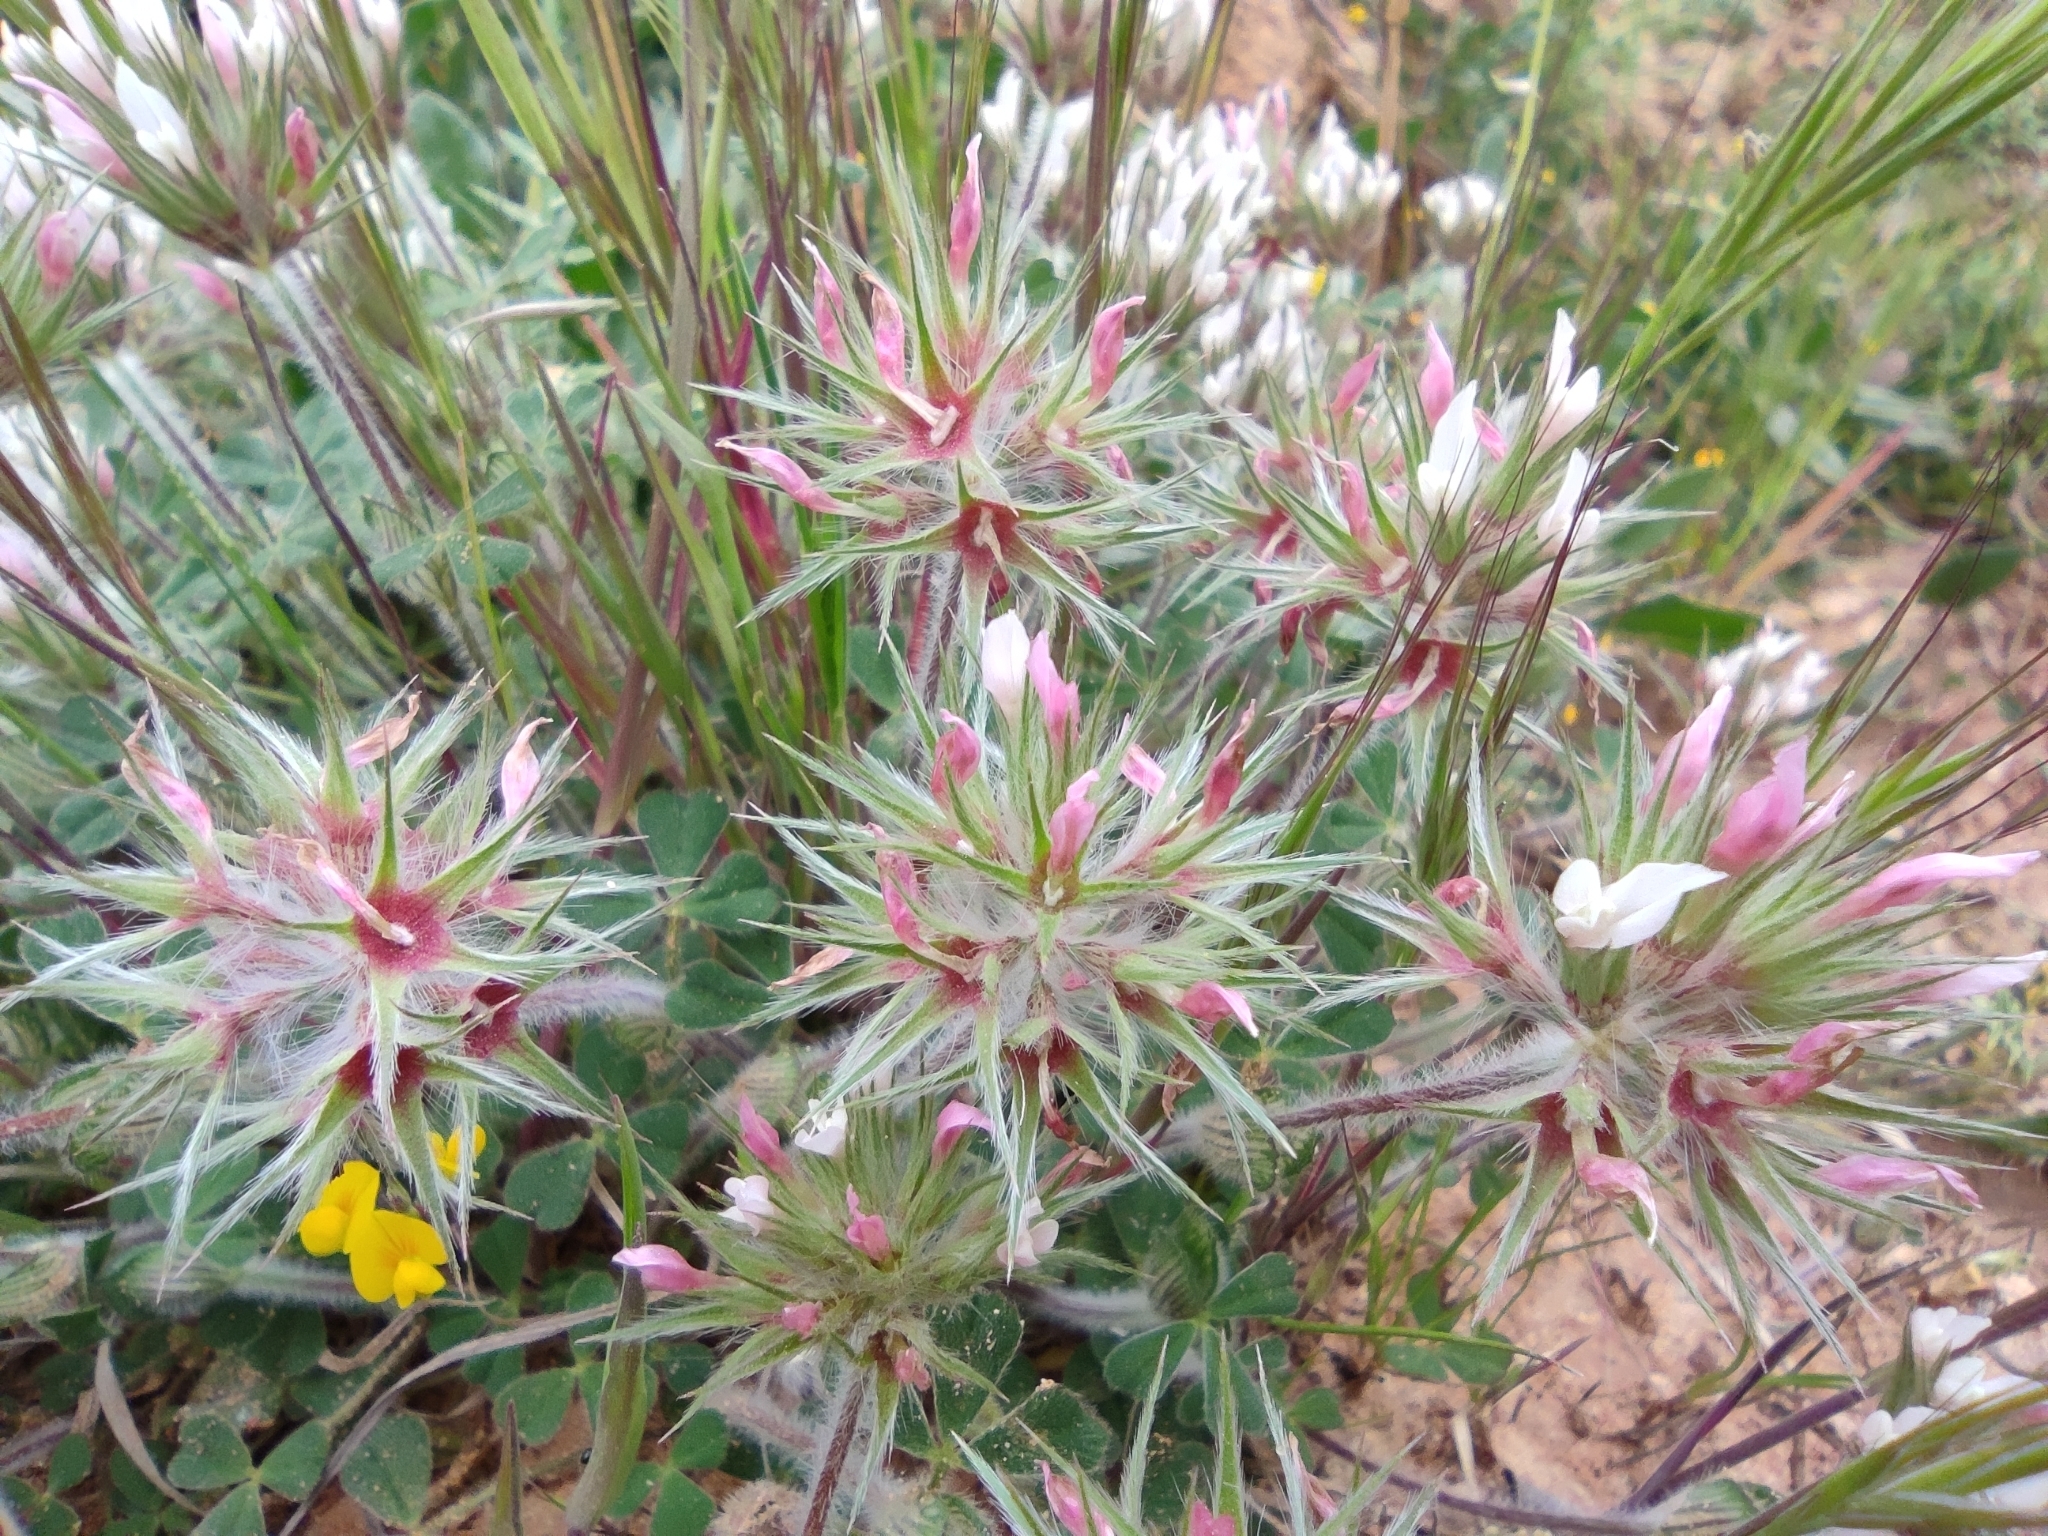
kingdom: Plantae
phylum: Tracheophyta
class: Magnoliopsida
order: Fabales
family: Fabaceae
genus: Trifolium
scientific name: Trifolium stellatum
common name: Starry clover
